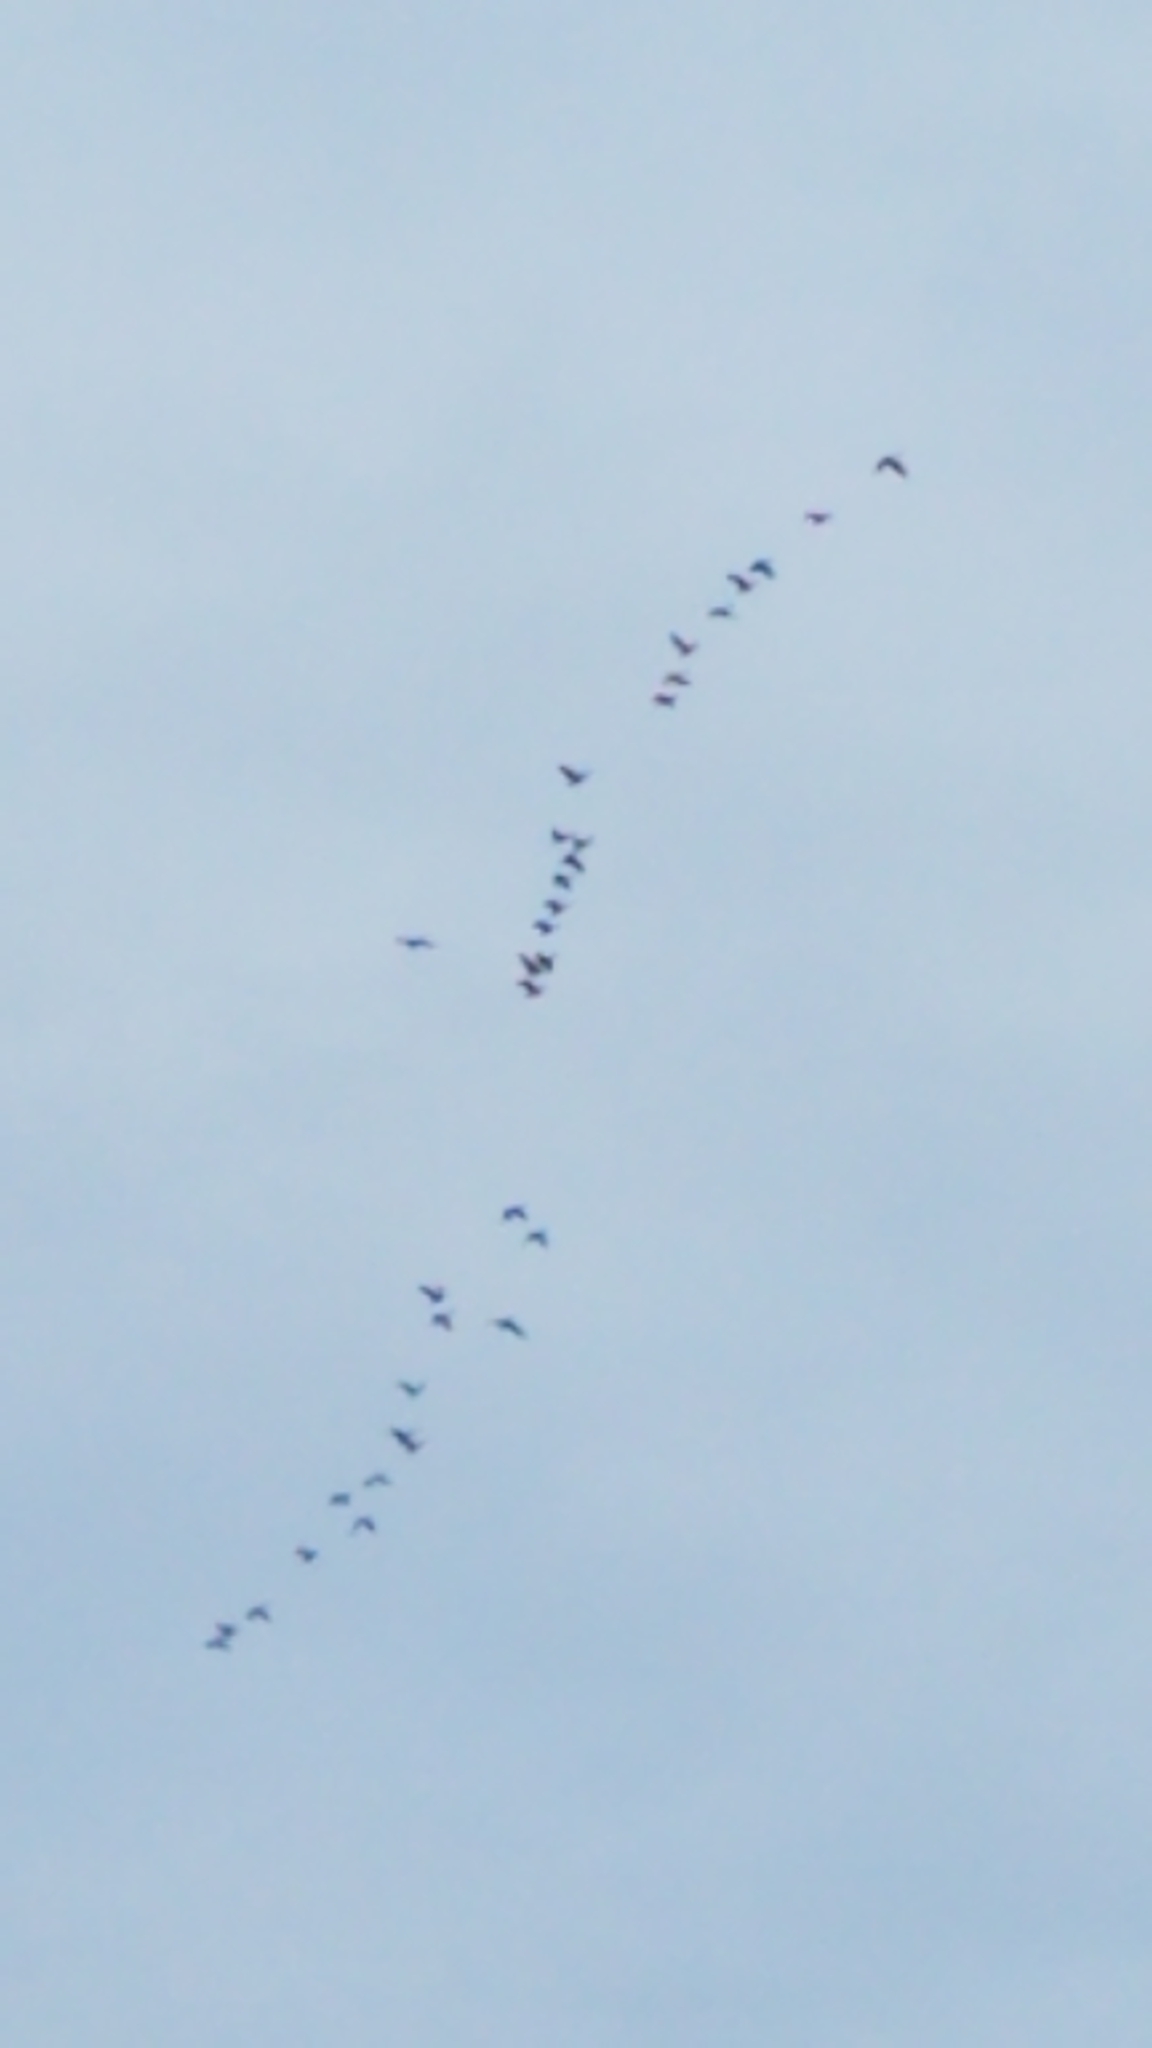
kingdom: Animalia
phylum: Chordata
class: Aves
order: Anseriformes
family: Anatidae
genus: Branta
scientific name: Branta canadensis
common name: Canada goose
